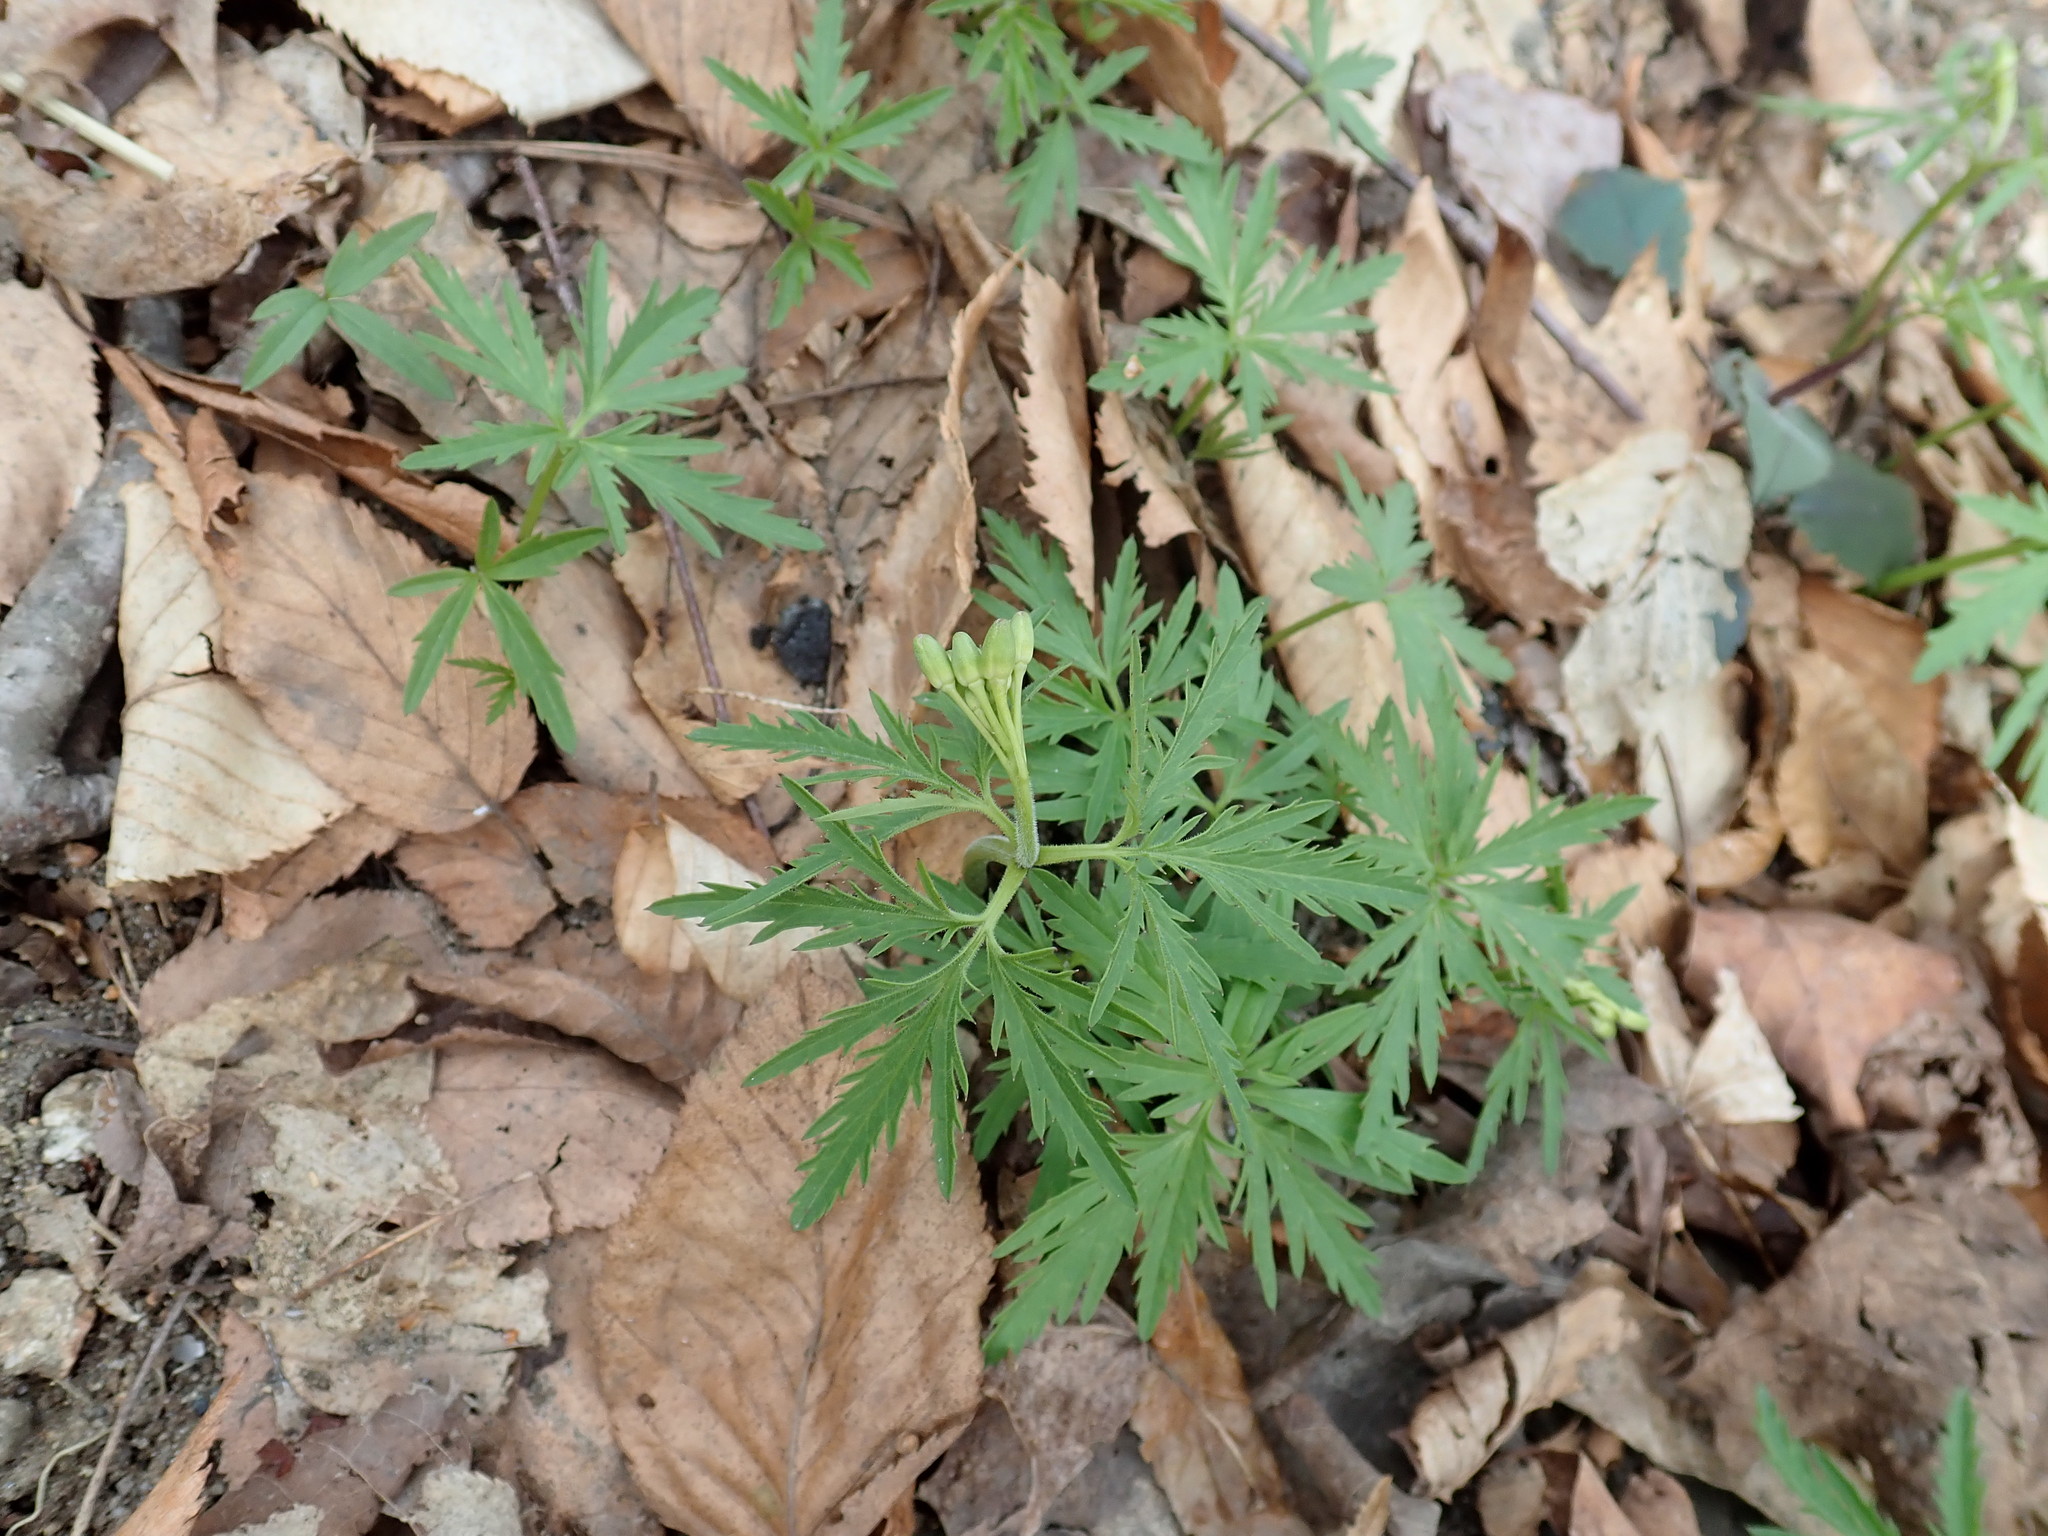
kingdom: Plantae
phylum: Tracheophyta
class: Magnoliopsida
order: Brassicales
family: Brassicaceae
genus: Cardamine
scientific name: Cardamine concatenata
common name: Cut-leaf toothcup
